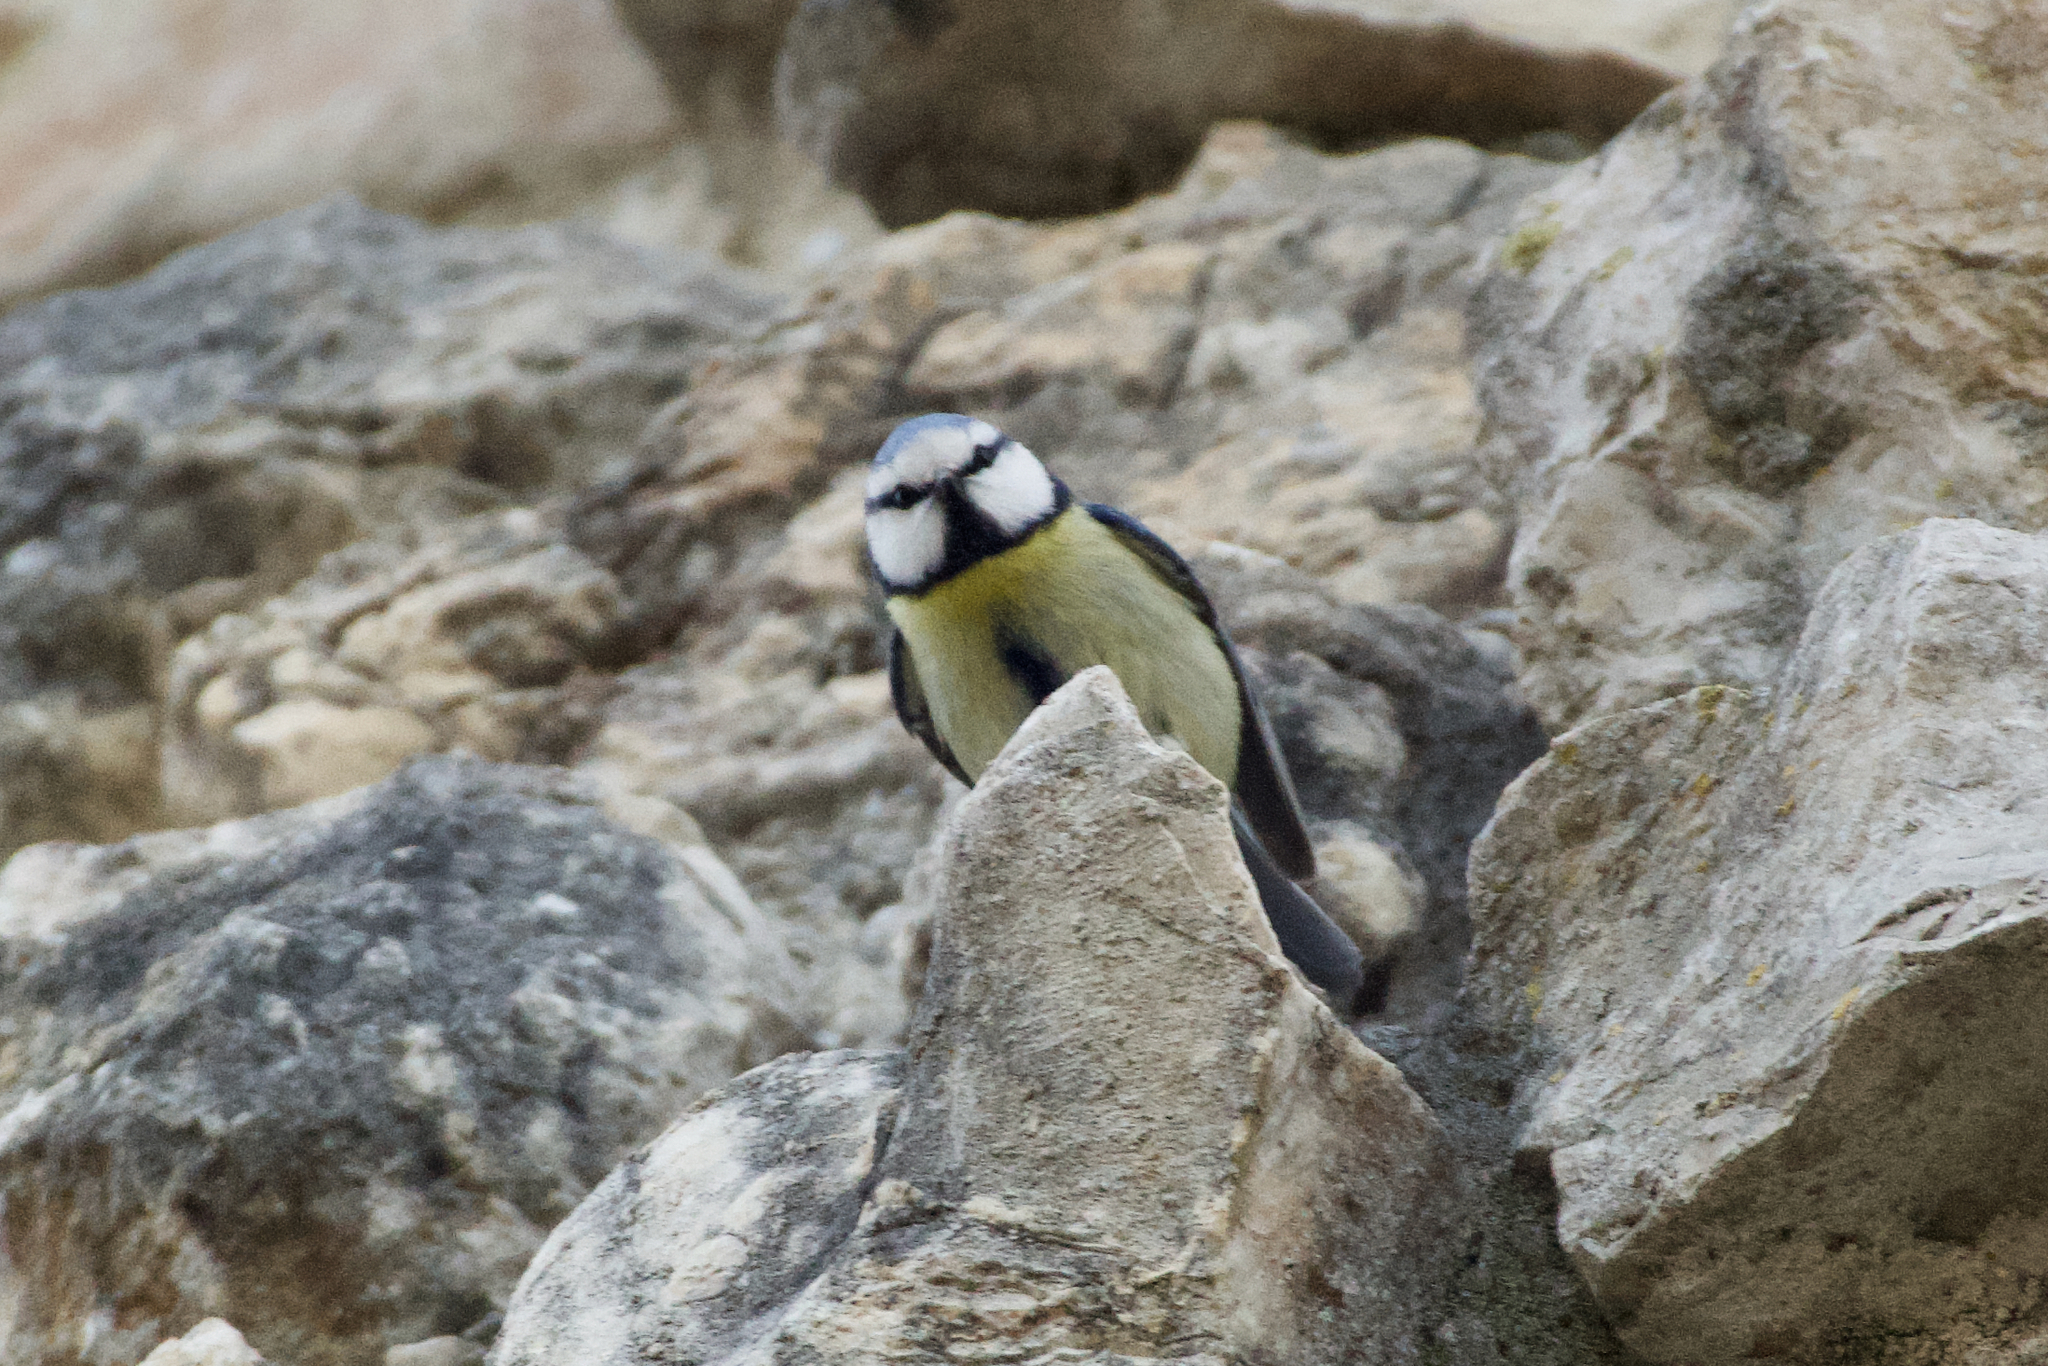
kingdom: Animalia
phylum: Chordata
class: Aves
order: Passeriformes
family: Paridae
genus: Cyanistes
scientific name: Cyanistes caeruleus
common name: Eurasian blue tit
